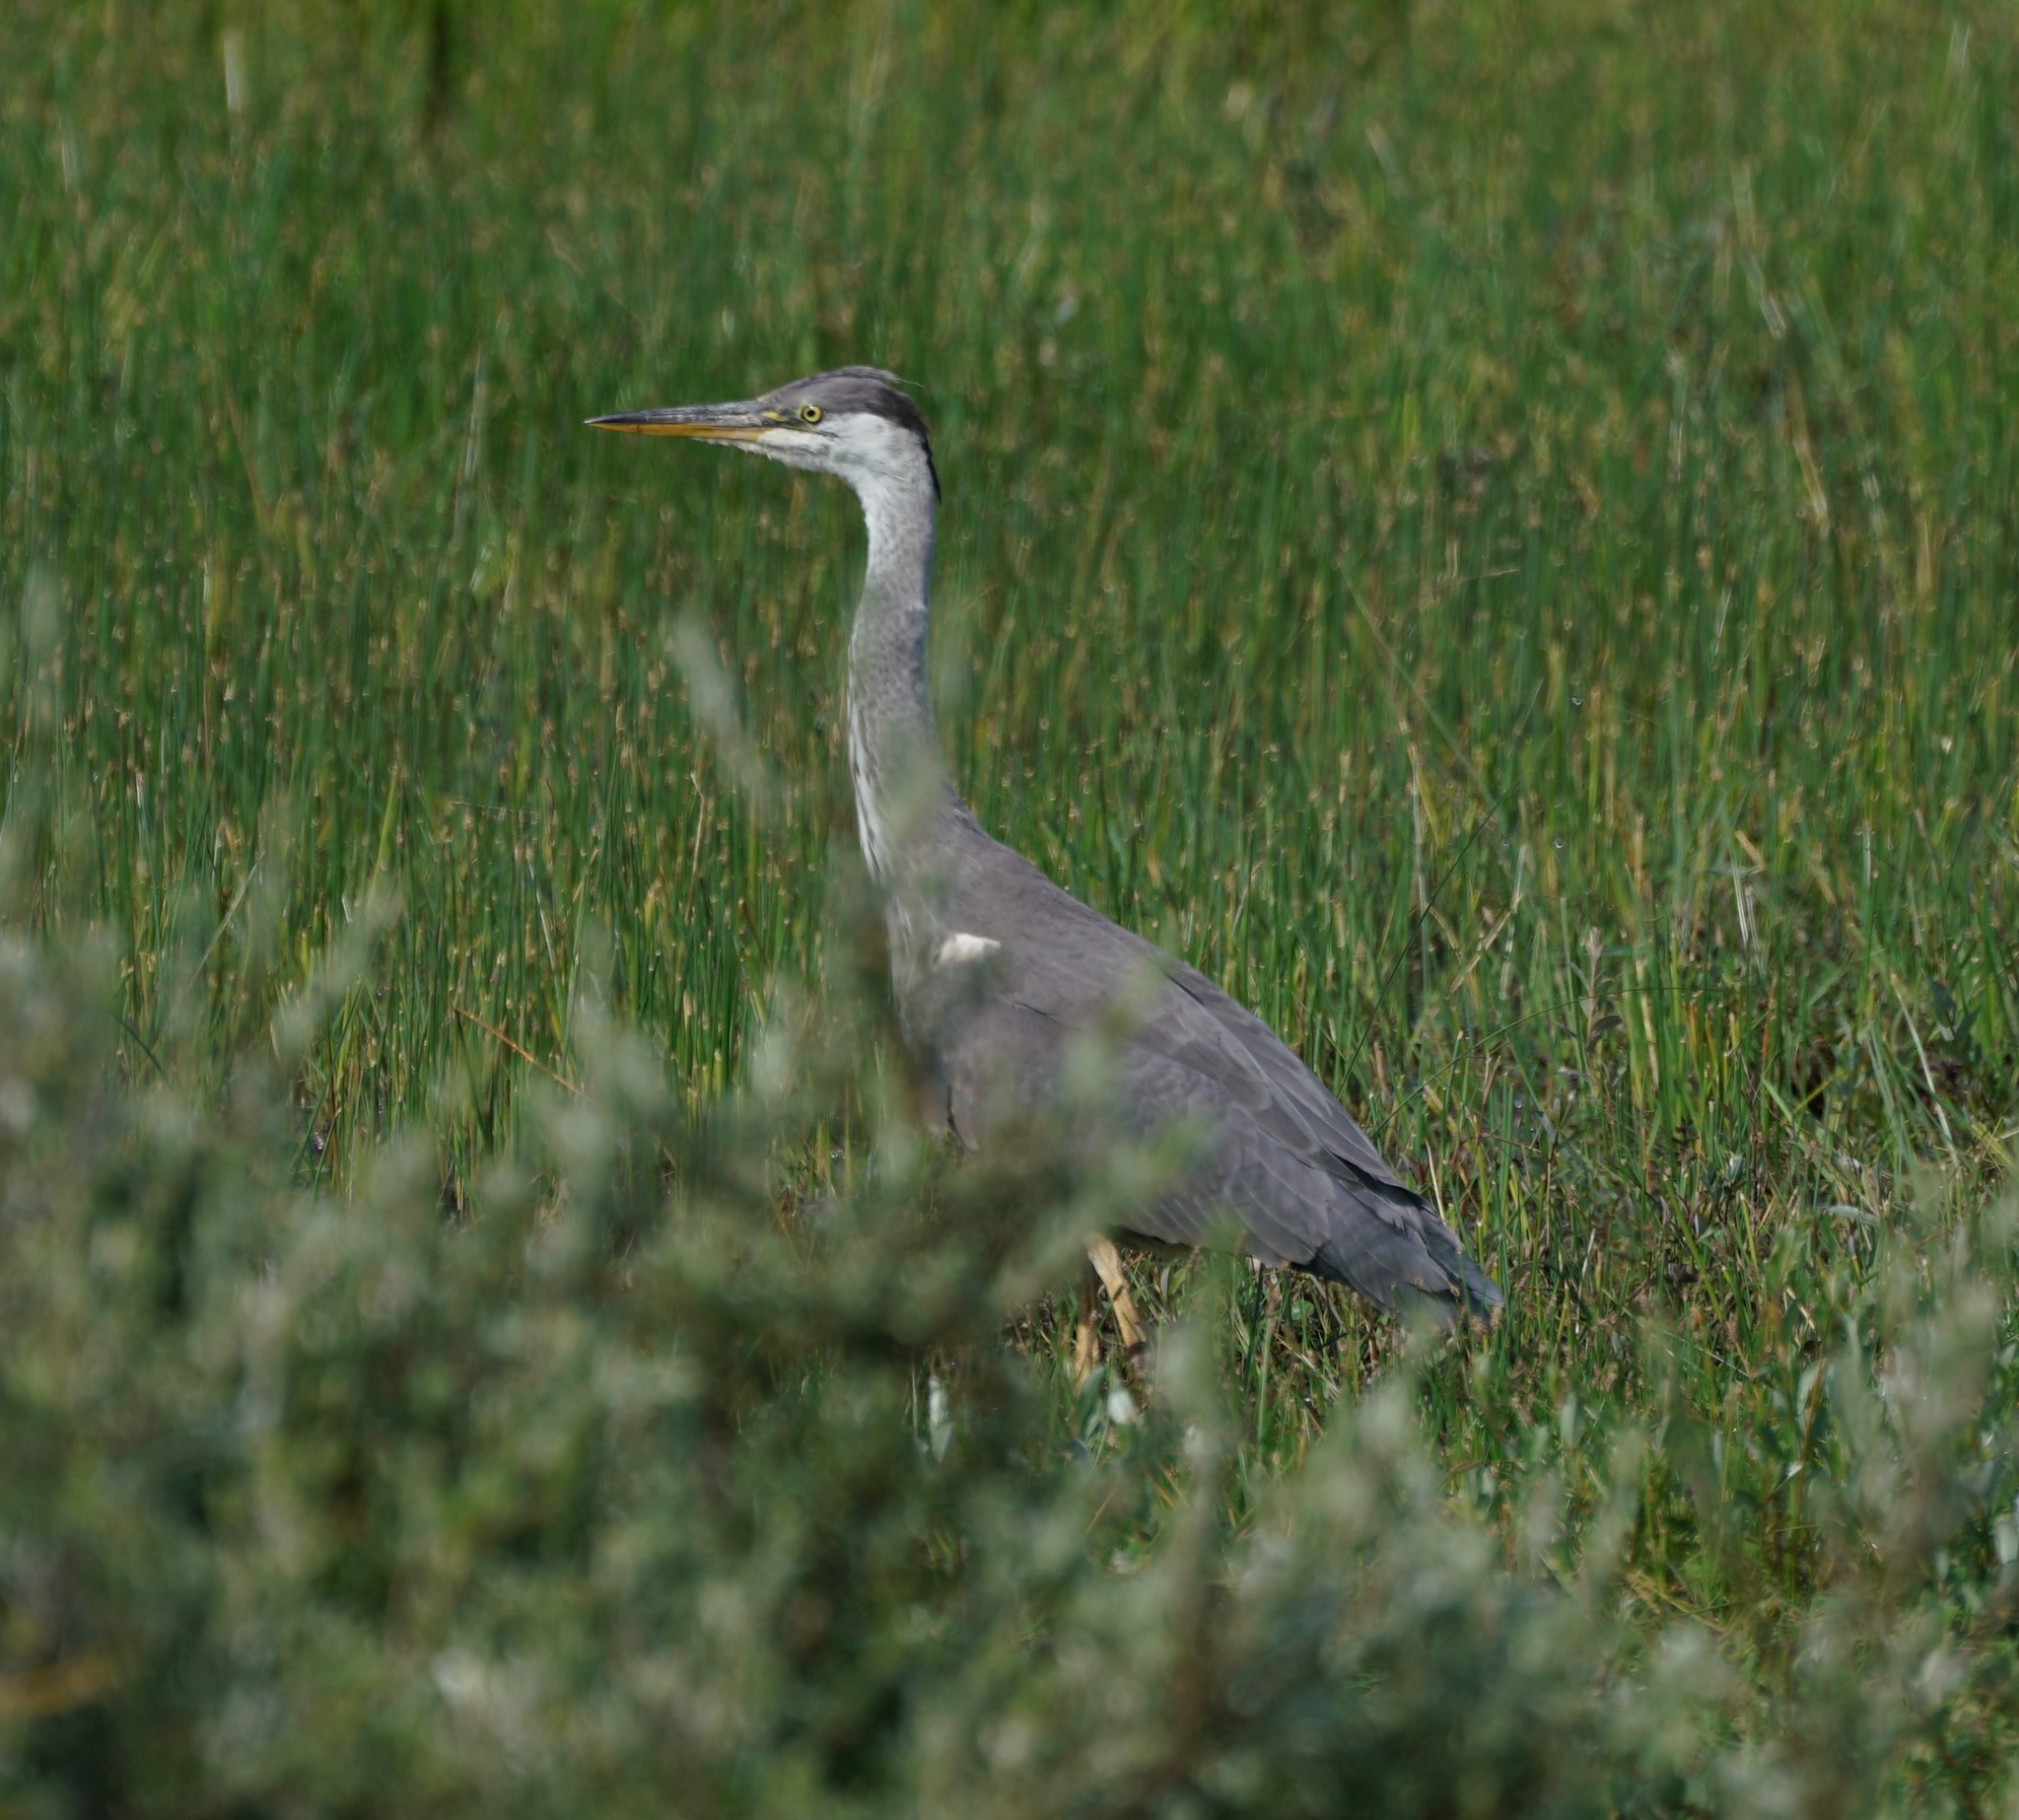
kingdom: Animalia
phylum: Chordata
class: Aves
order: Pelecaniformes
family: Ardeidae
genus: Ardea
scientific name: Ardea cinerea
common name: Grey heron
